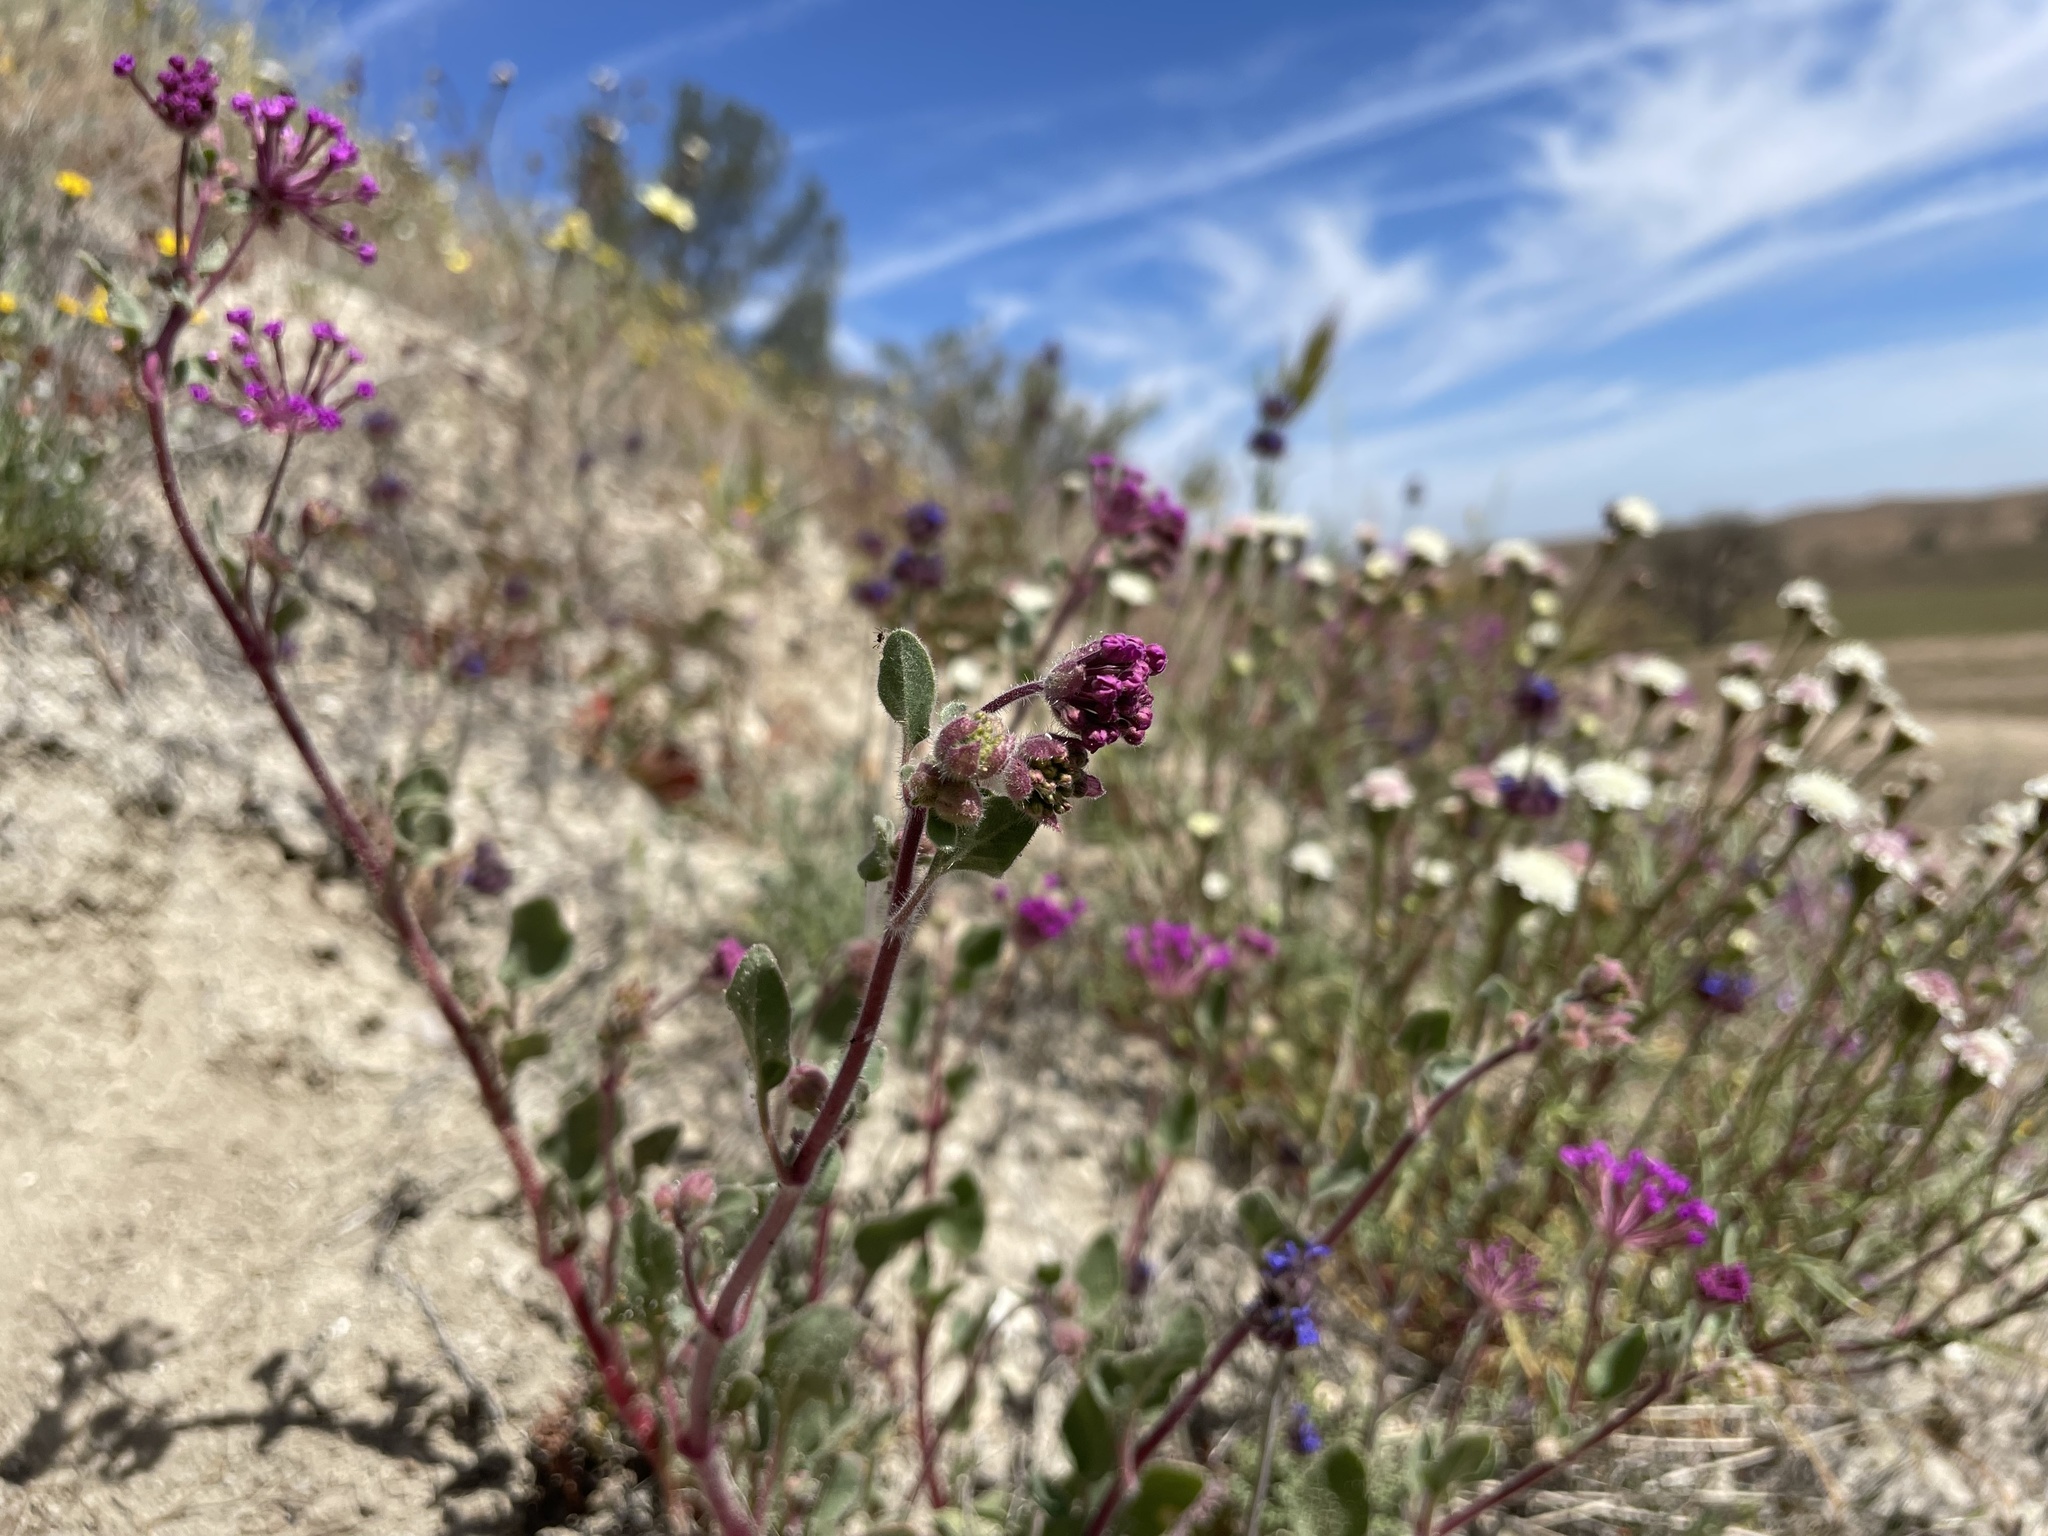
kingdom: Plantae
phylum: Tracheophyta
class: Magnoliopsida
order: Caryophyllales
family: Nyctaginaceae
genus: Abronia
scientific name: Abronia pogonantha
